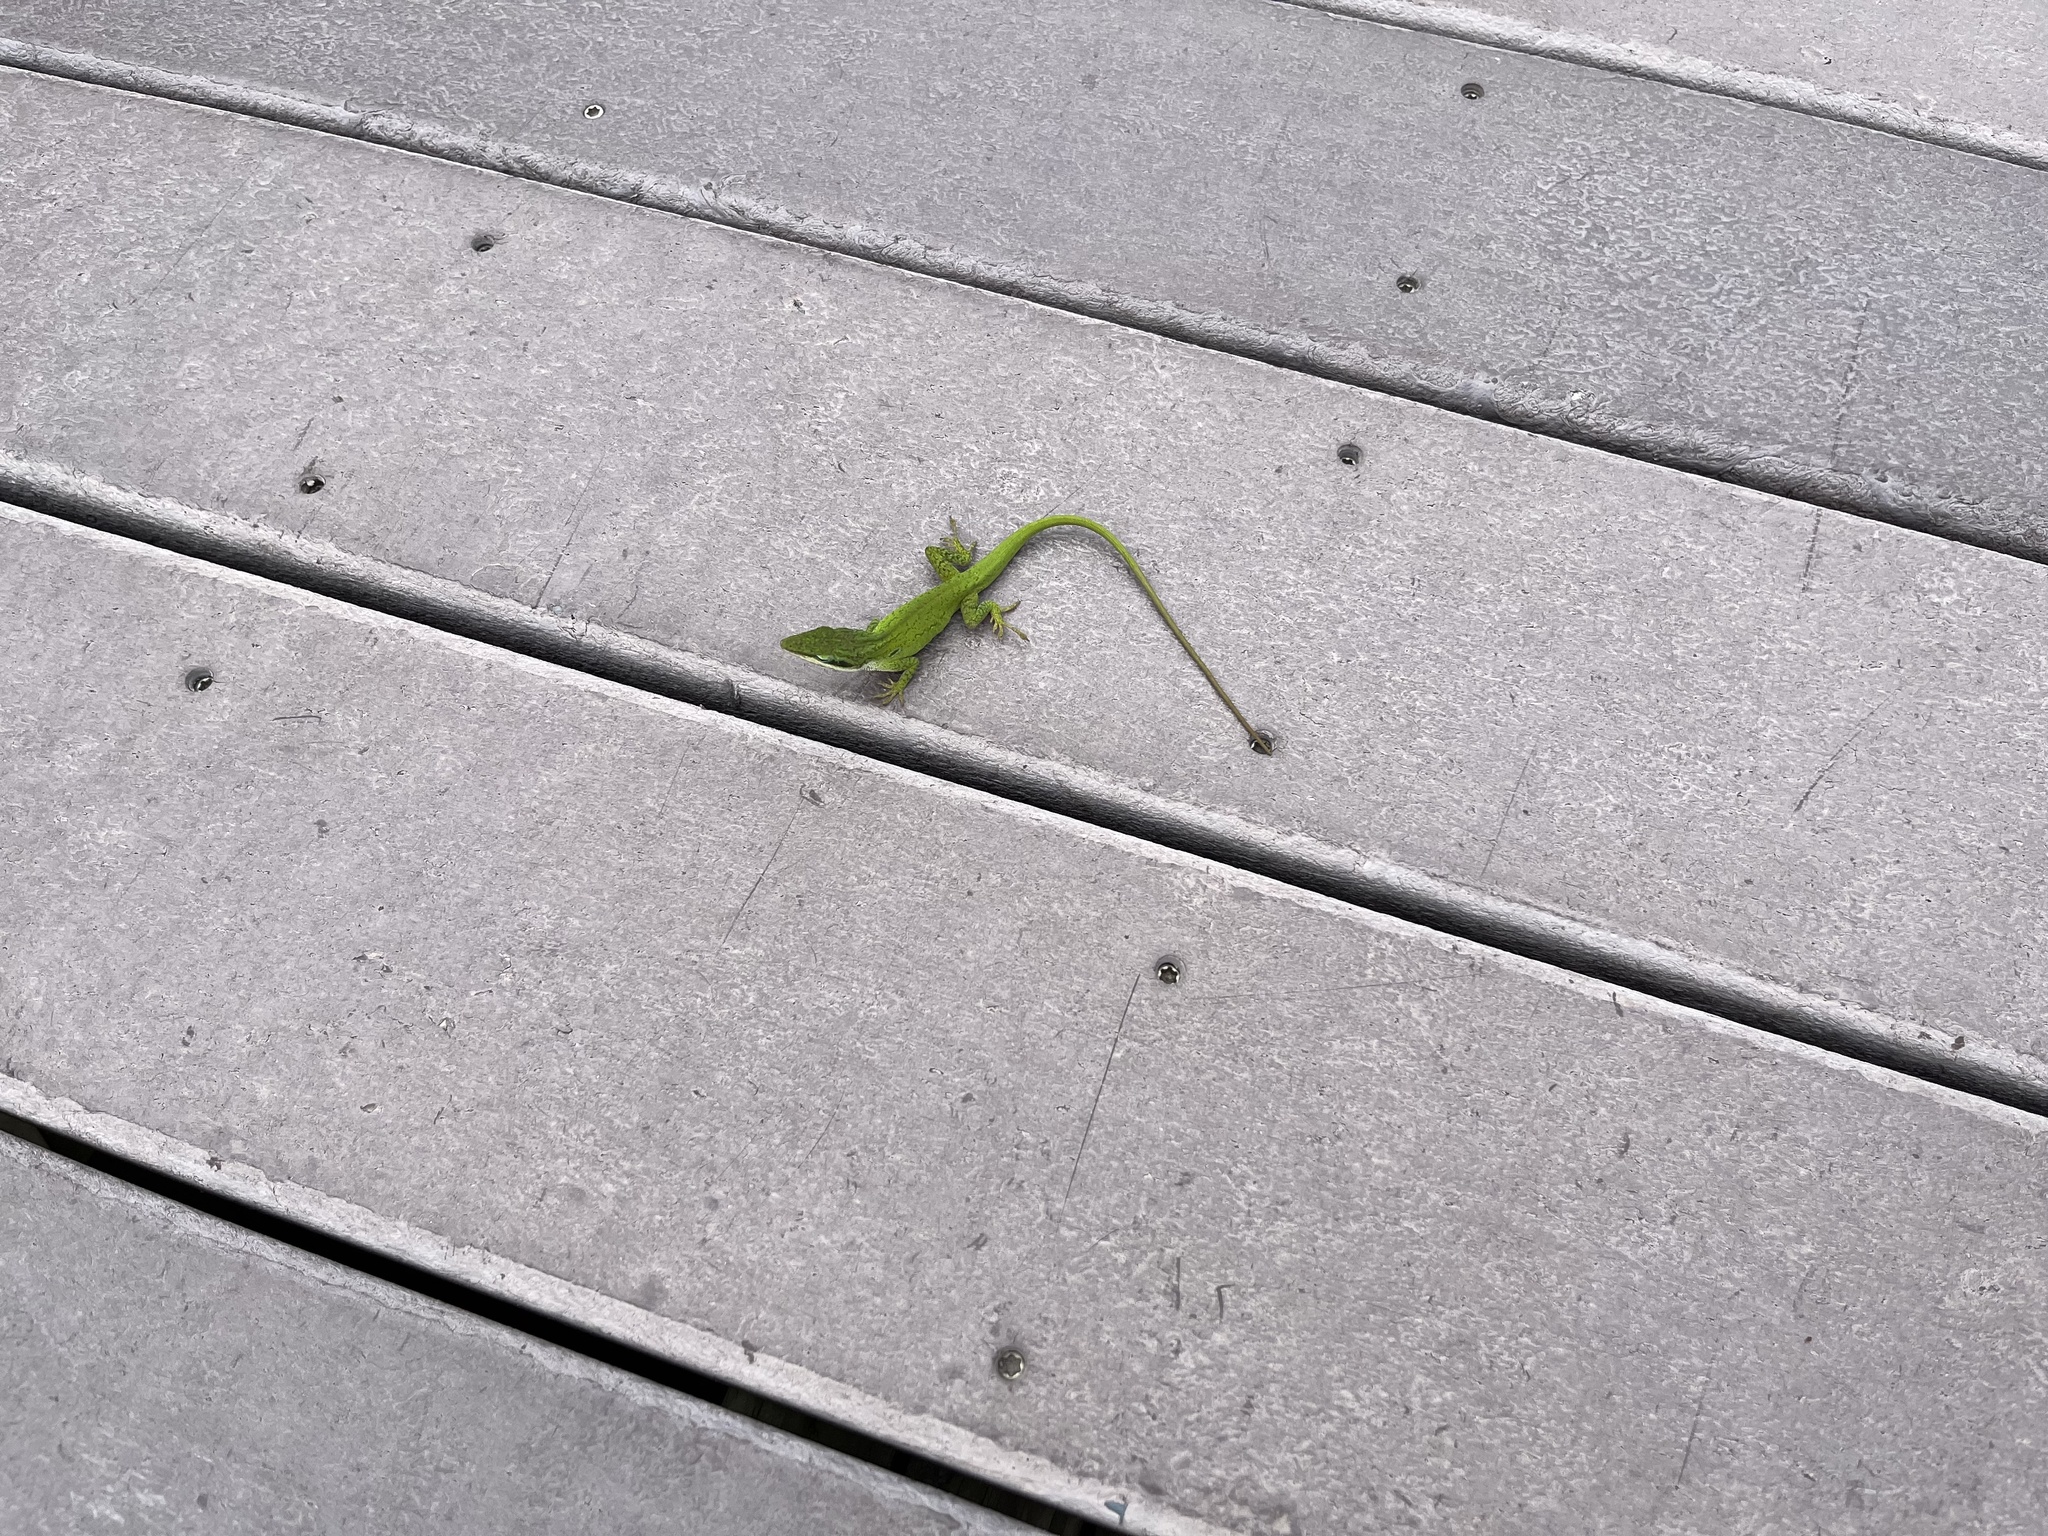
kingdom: Animalia
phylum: Chordata
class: Squamata
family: Dactyloidae
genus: Anolis
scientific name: Anolis carolinensis
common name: Green anole
